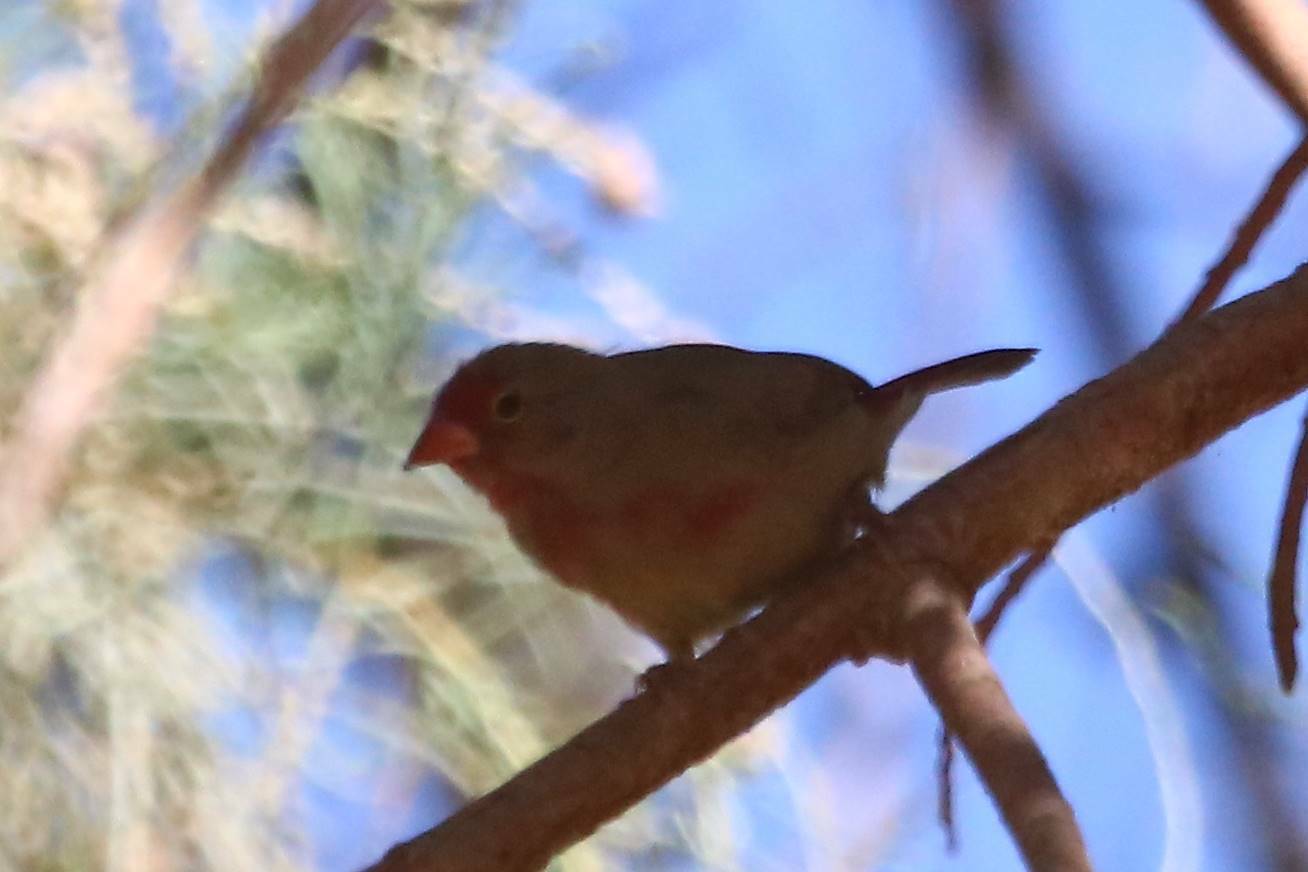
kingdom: Animalia
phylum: Chordata
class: Aves
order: Passeriformes
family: Estrildidae
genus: Lagonosticta
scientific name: Lagonosticta senegala
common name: Red-billed firefinch
